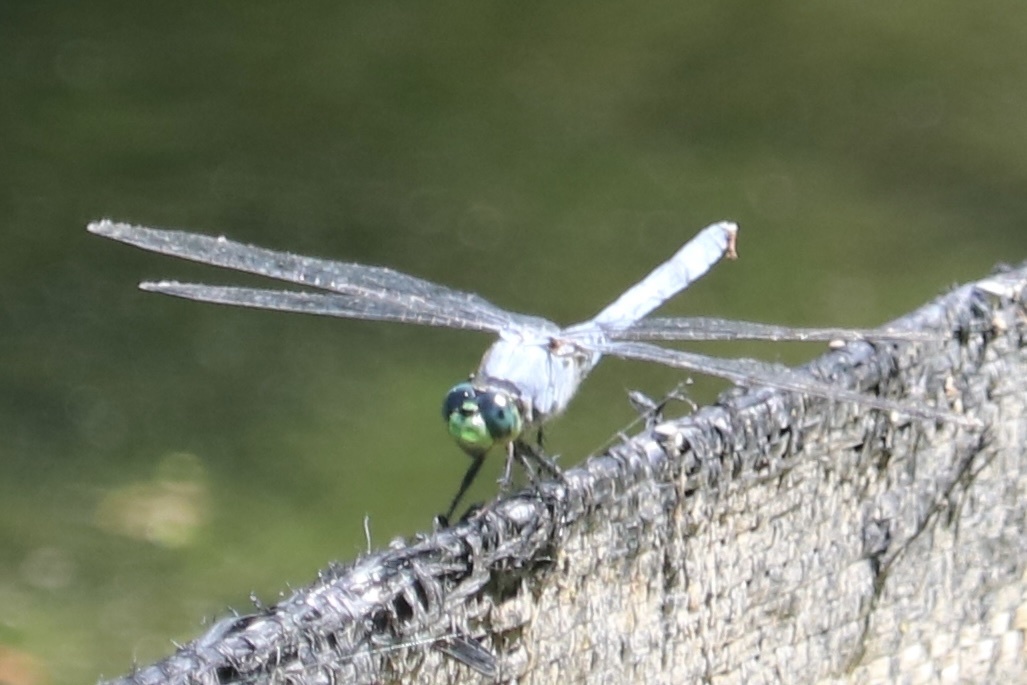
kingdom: Animalia
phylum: Arthropoda
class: Insecta
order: Odonata
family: Libellulidae
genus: Erythemis
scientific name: Erythemis simplicicollis
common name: Eastern pondhawk
